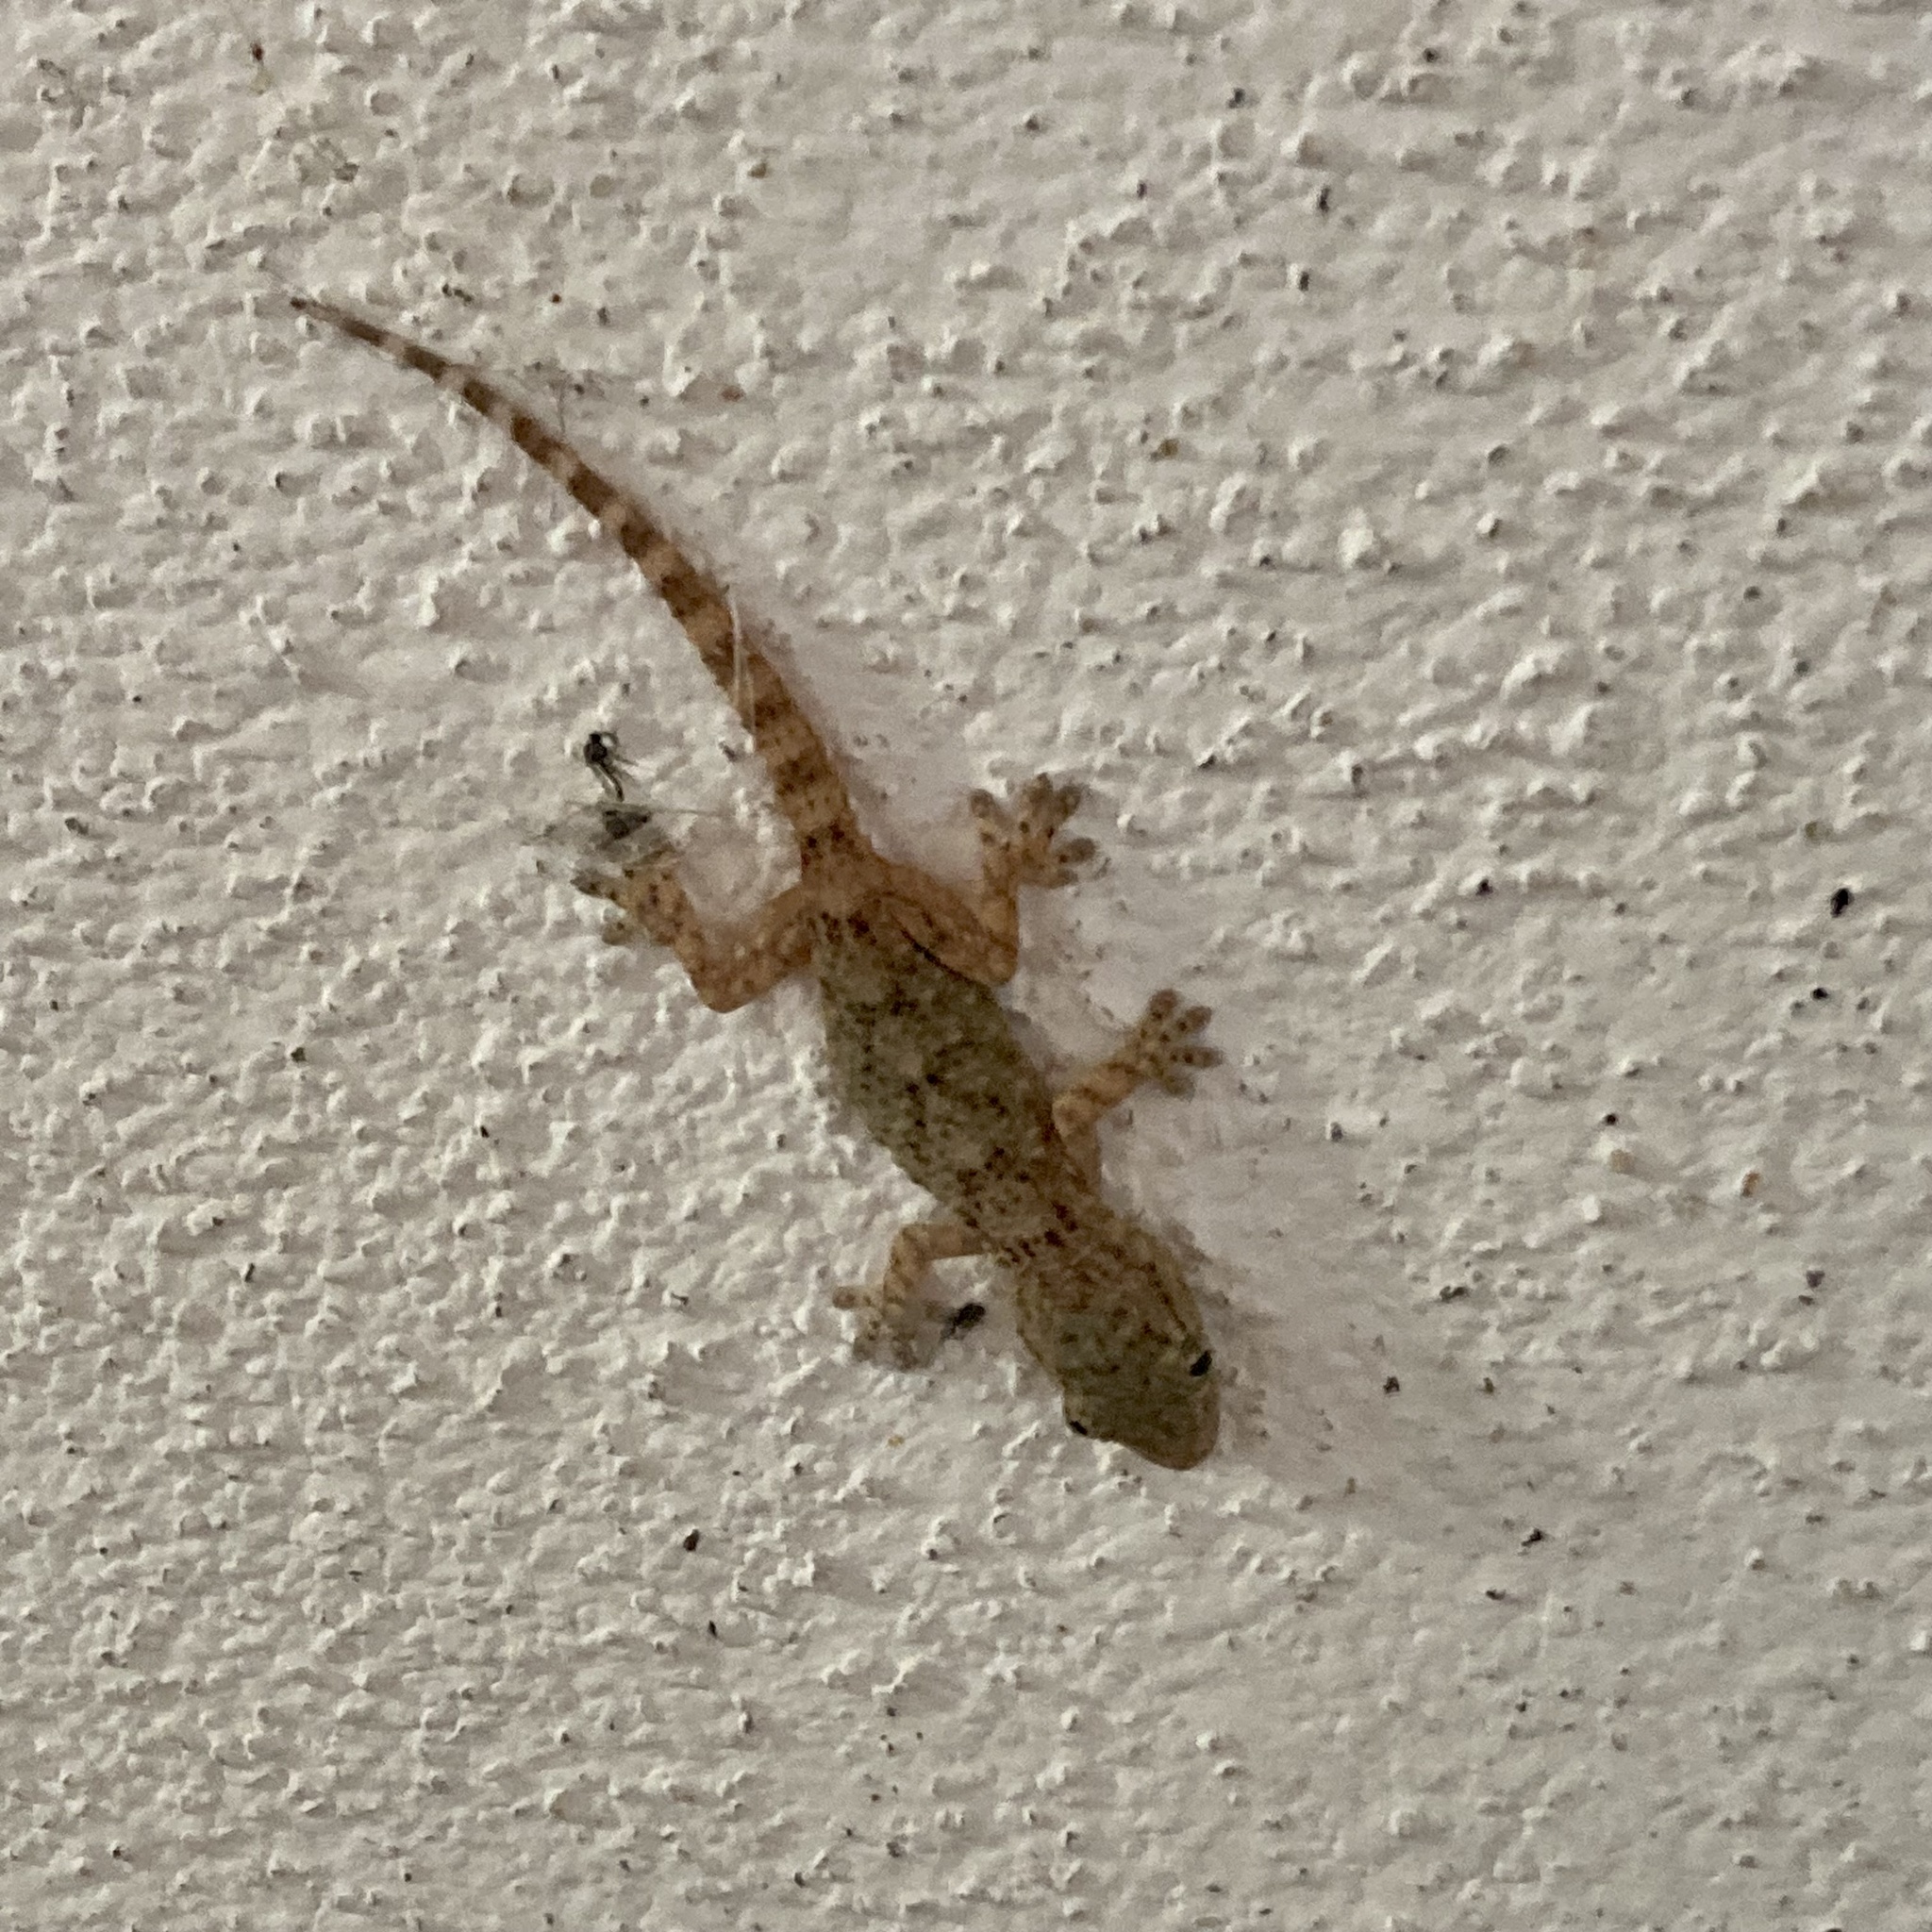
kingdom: Animalia
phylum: Chordata
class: Squamata
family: Phyllodactylidae
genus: Tarentola
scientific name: Tarentola mauritanica
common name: Moorish gecko
